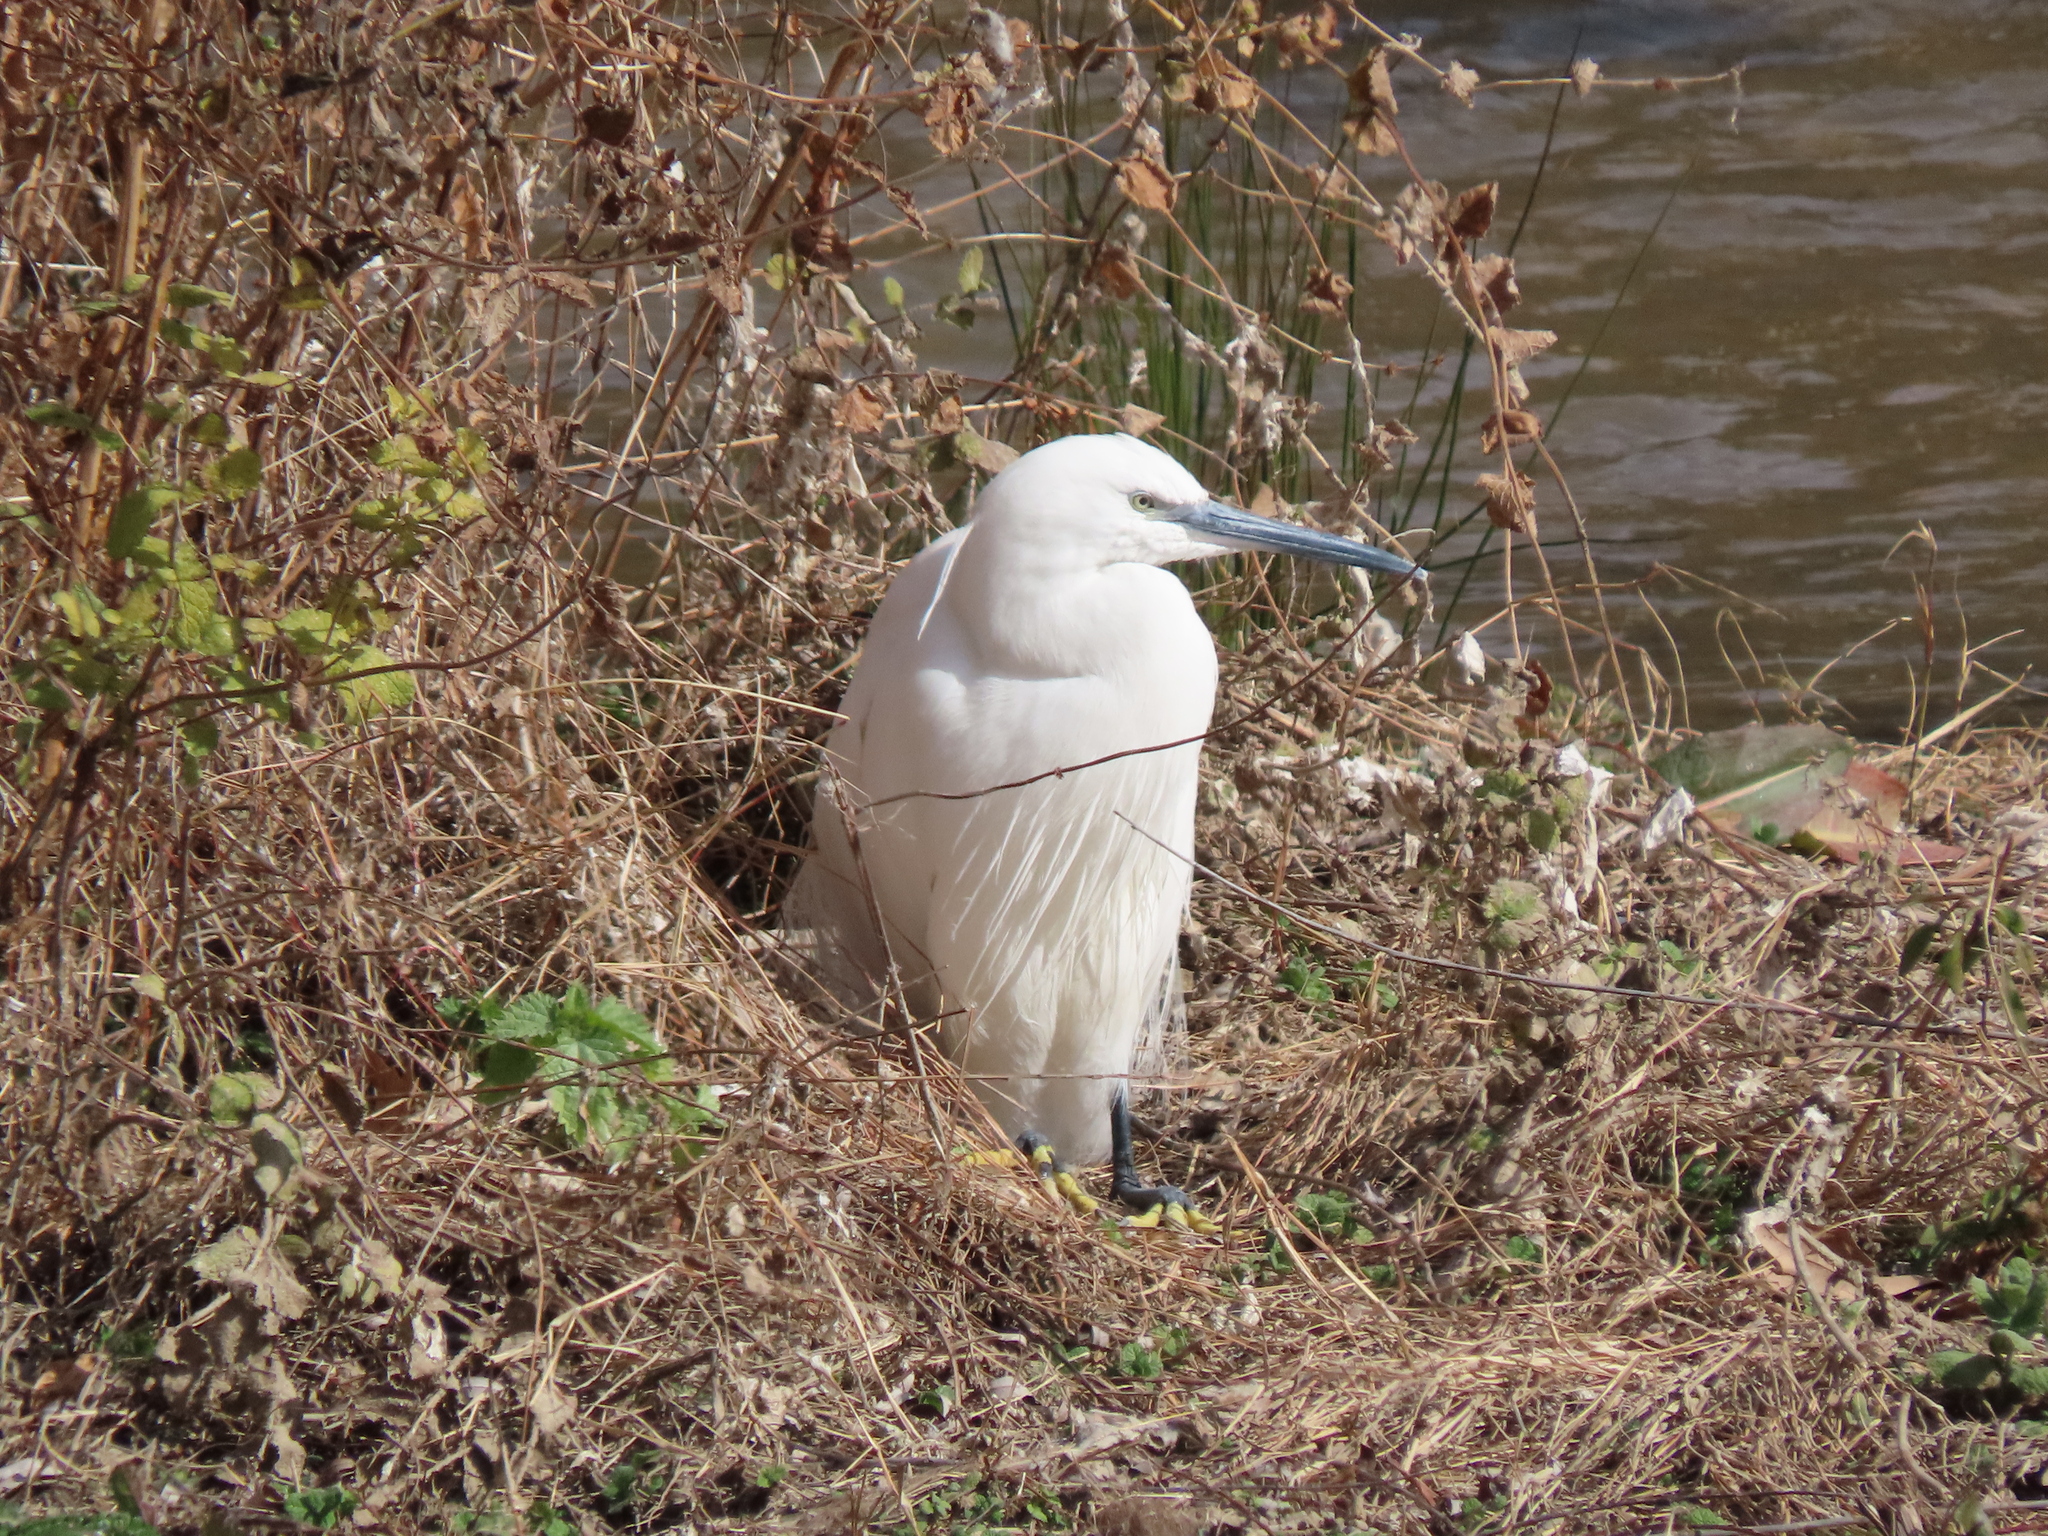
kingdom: Animalia
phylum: Chordata
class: Aves
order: Pelecaniformes
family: Ardeidae
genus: Egretta
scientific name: Egretta garzetta
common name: Little egret
